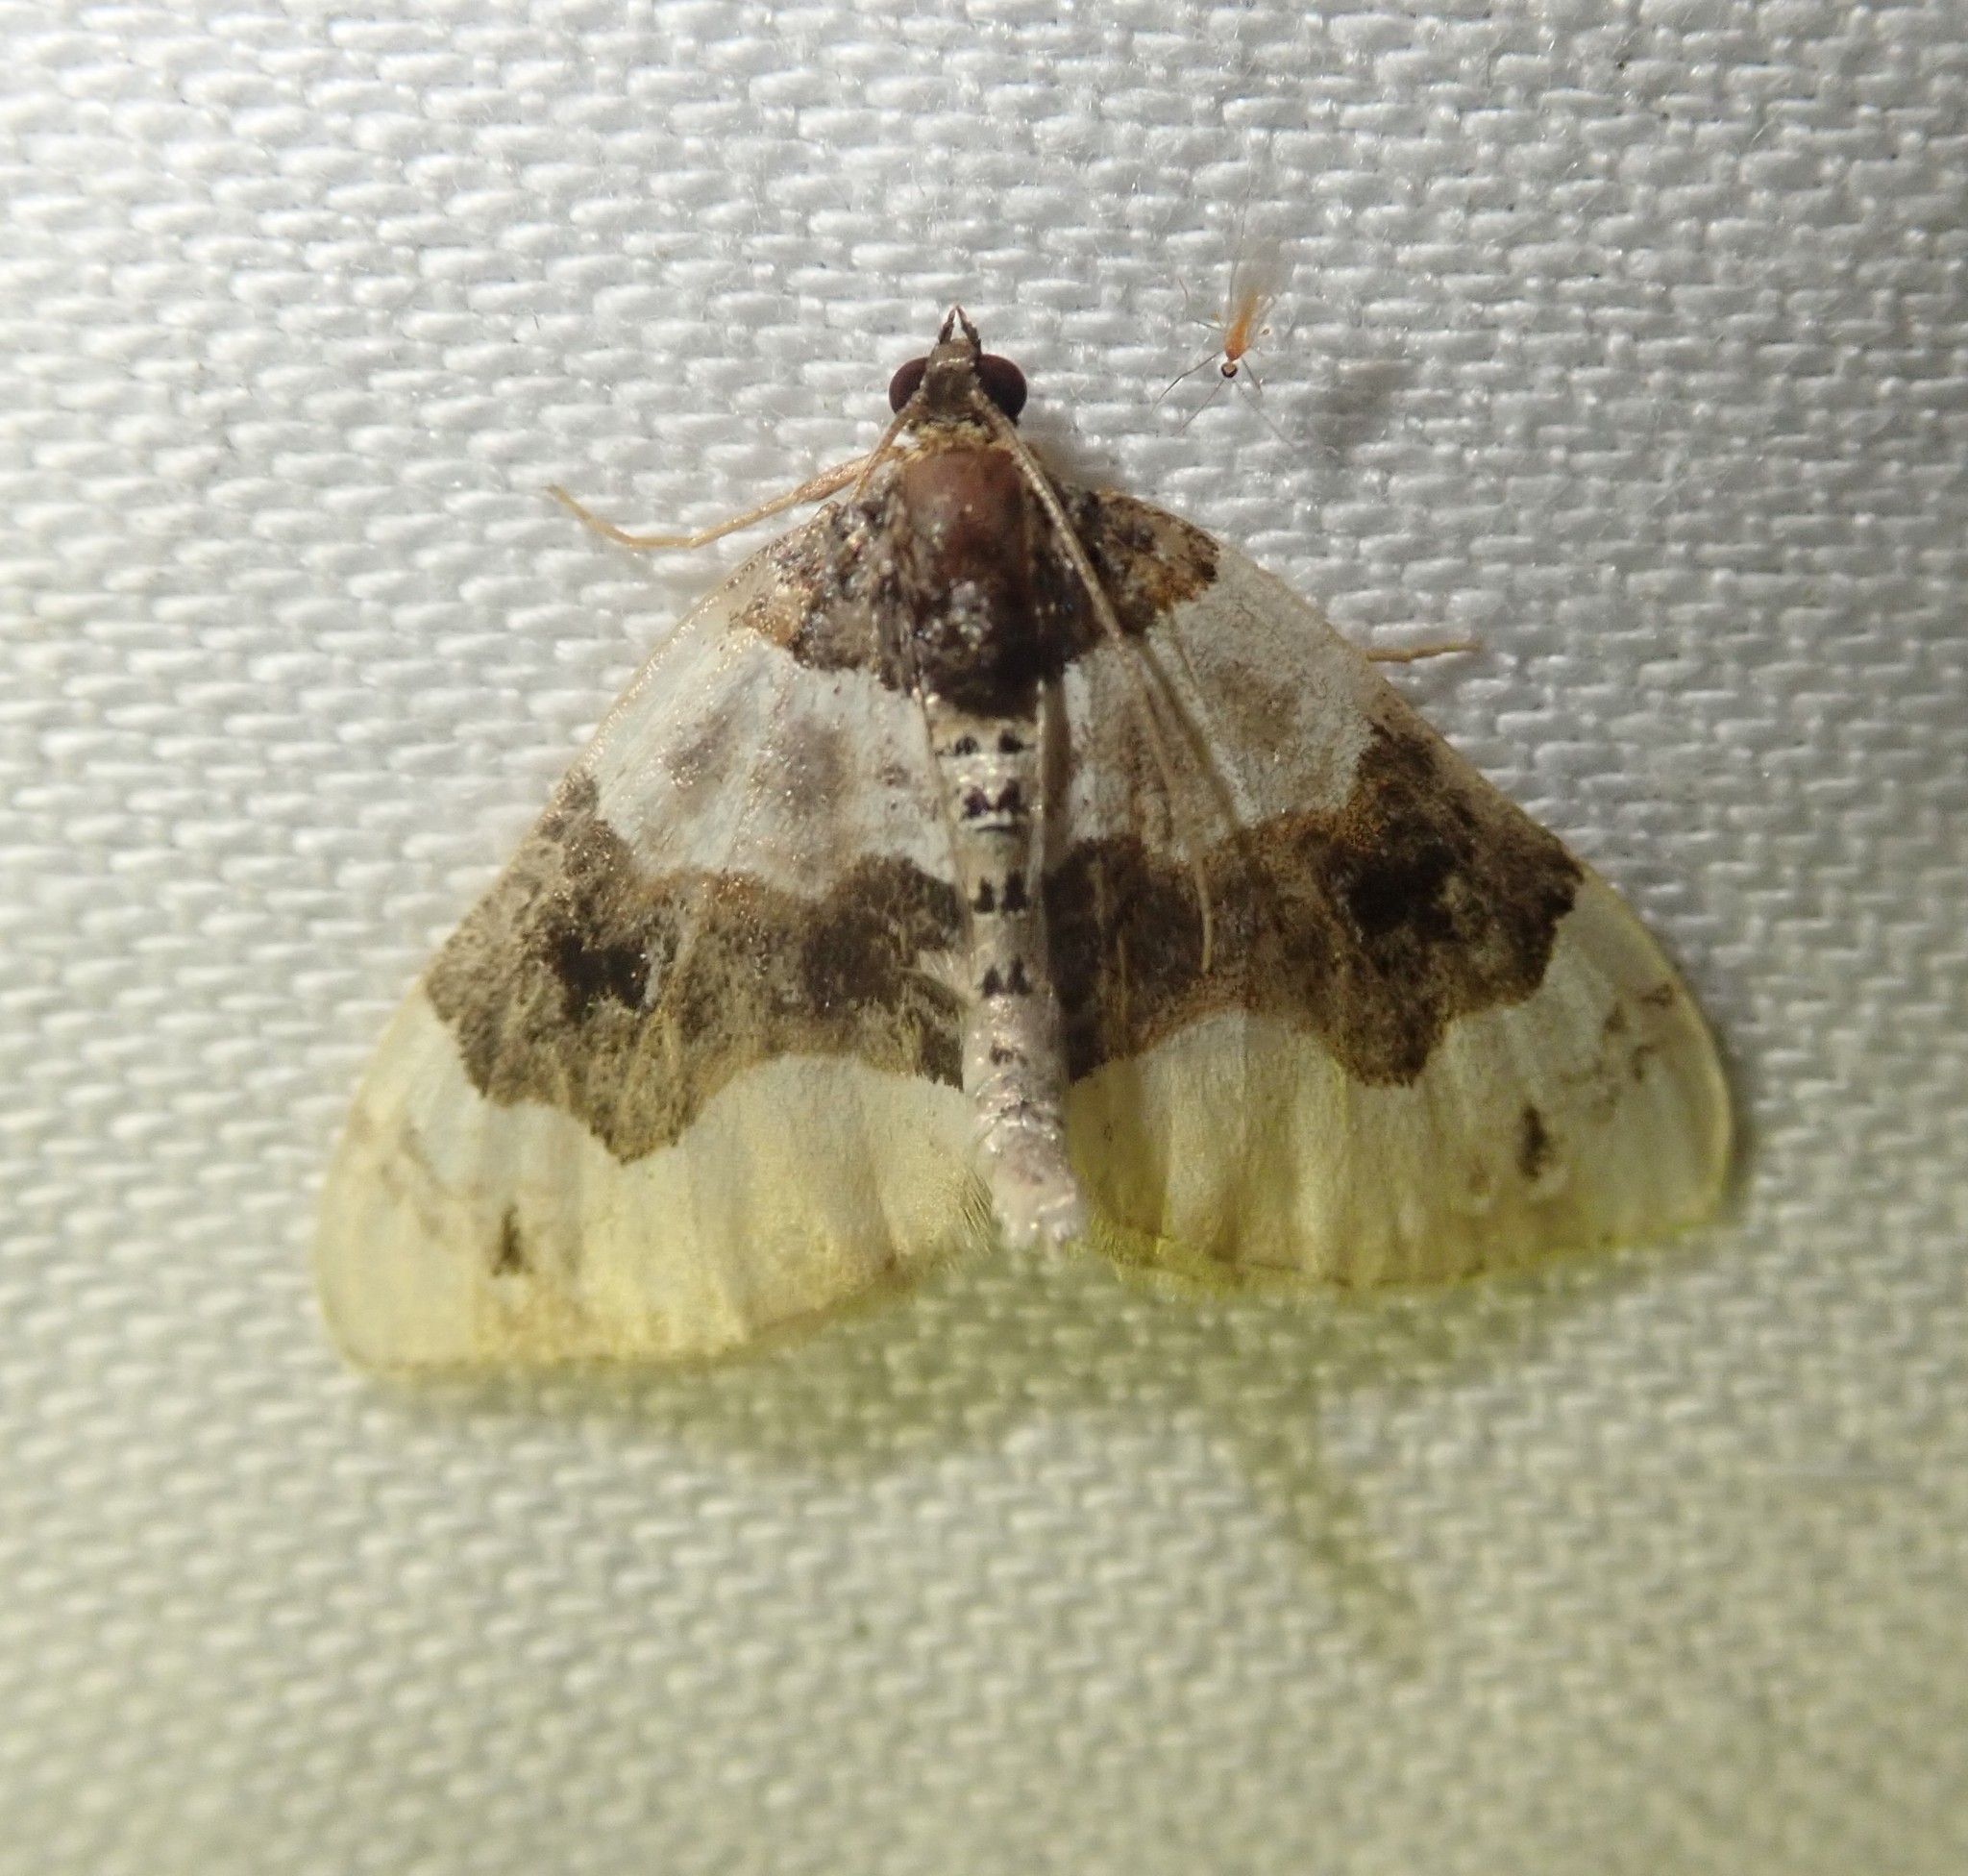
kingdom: Animalia
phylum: Arthropoda
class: Insecta
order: Lepidoptera
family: Geometridae
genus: Cosmorhoe
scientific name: Cosmorhoe ocellata
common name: Purple bar
